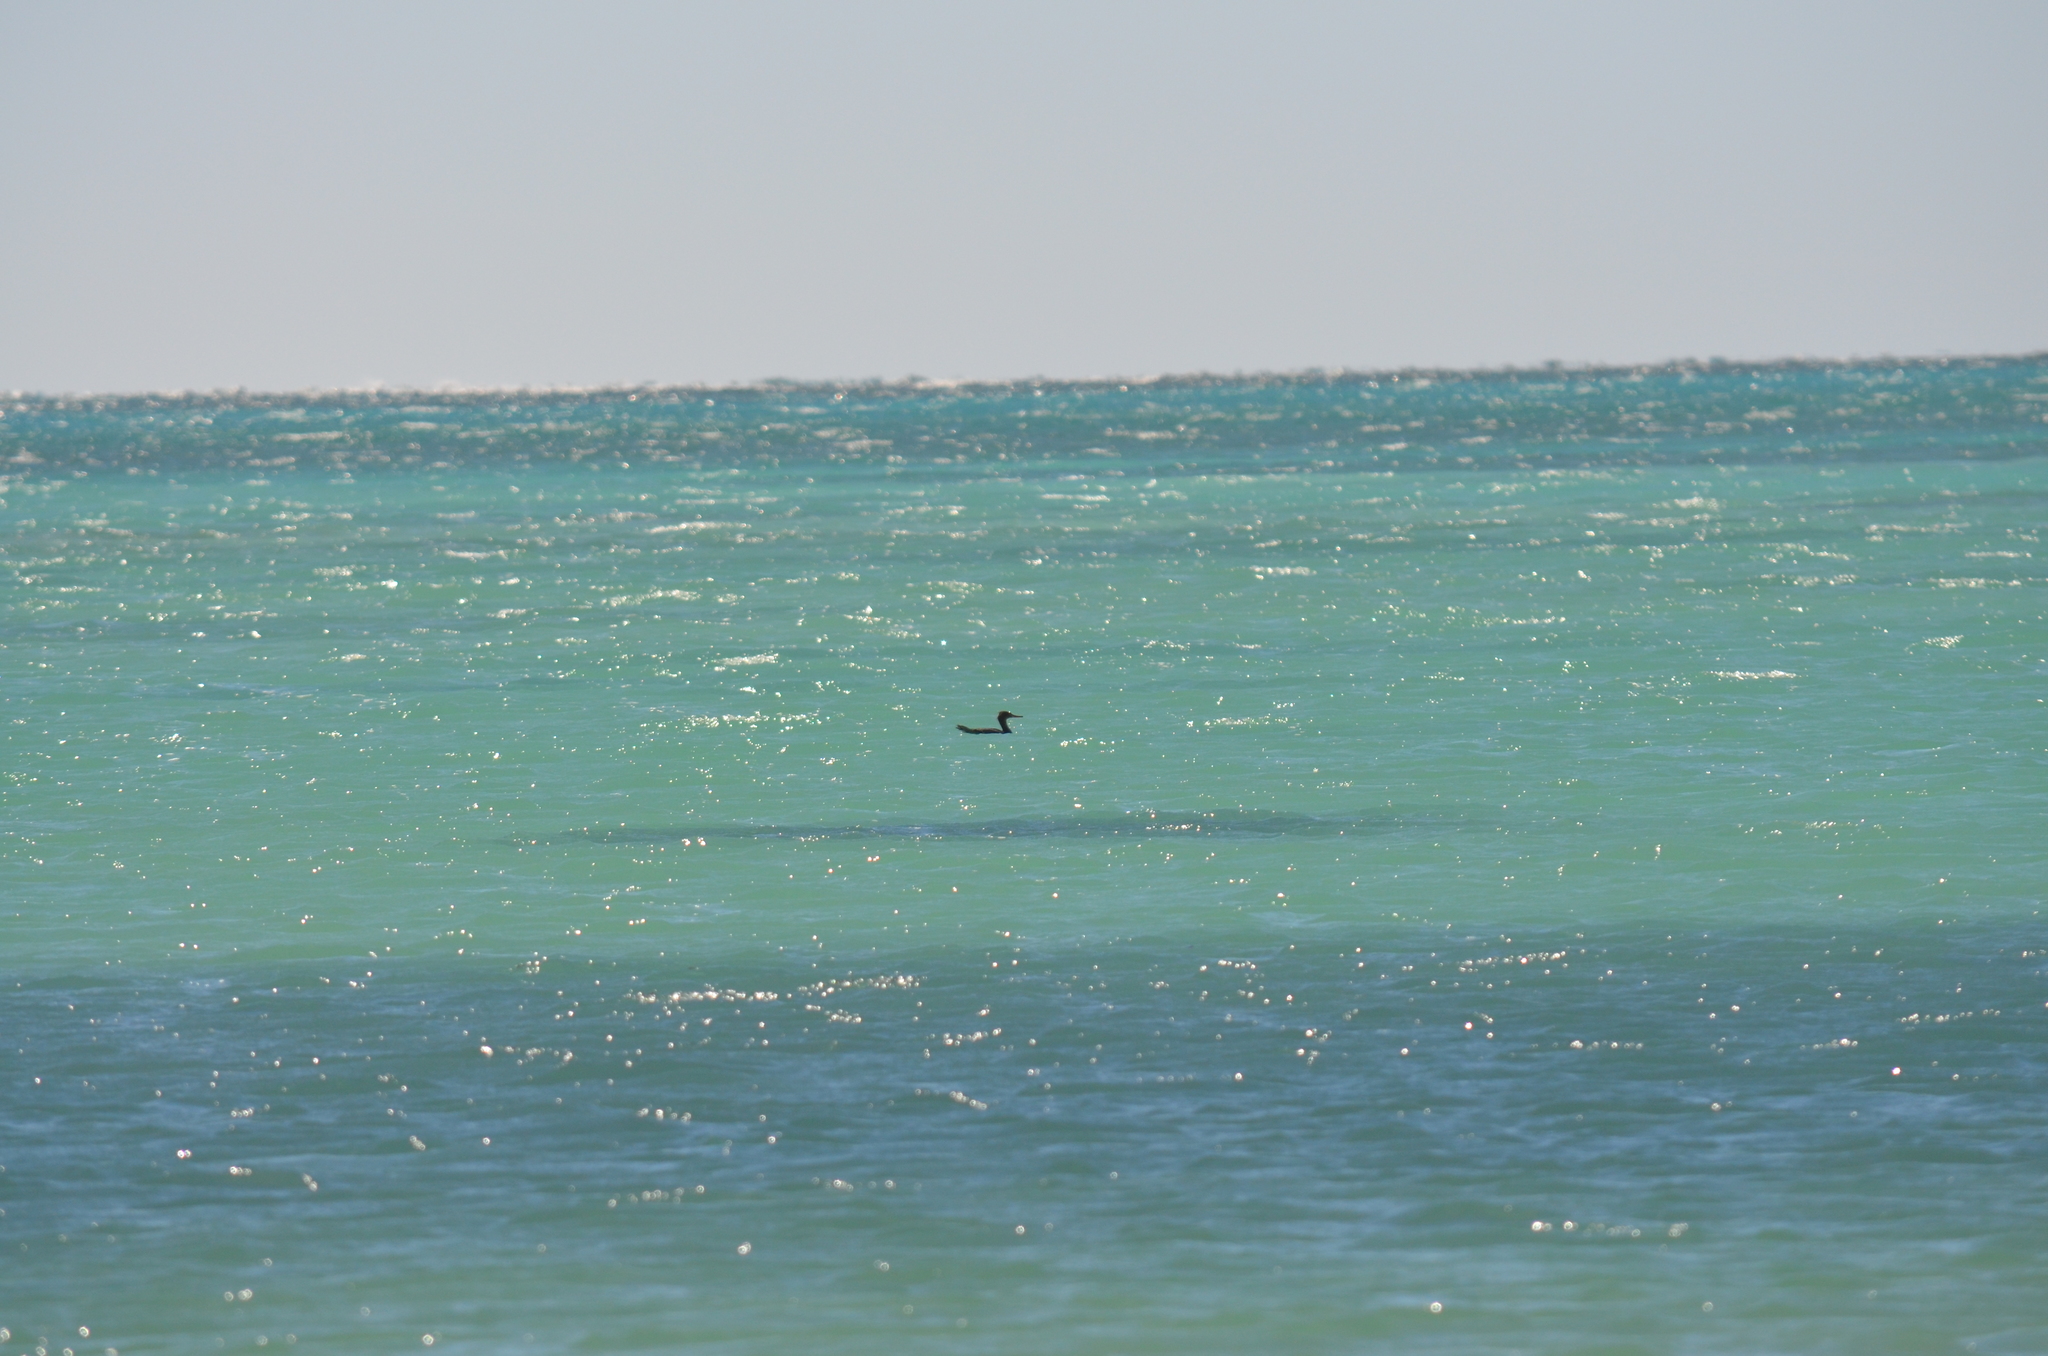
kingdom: Animalia
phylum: Chordata
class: Aves
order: Anseriformes
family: Anatidae
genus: Mergus
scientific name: Mergus serrator
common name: Red-breasted merganser
